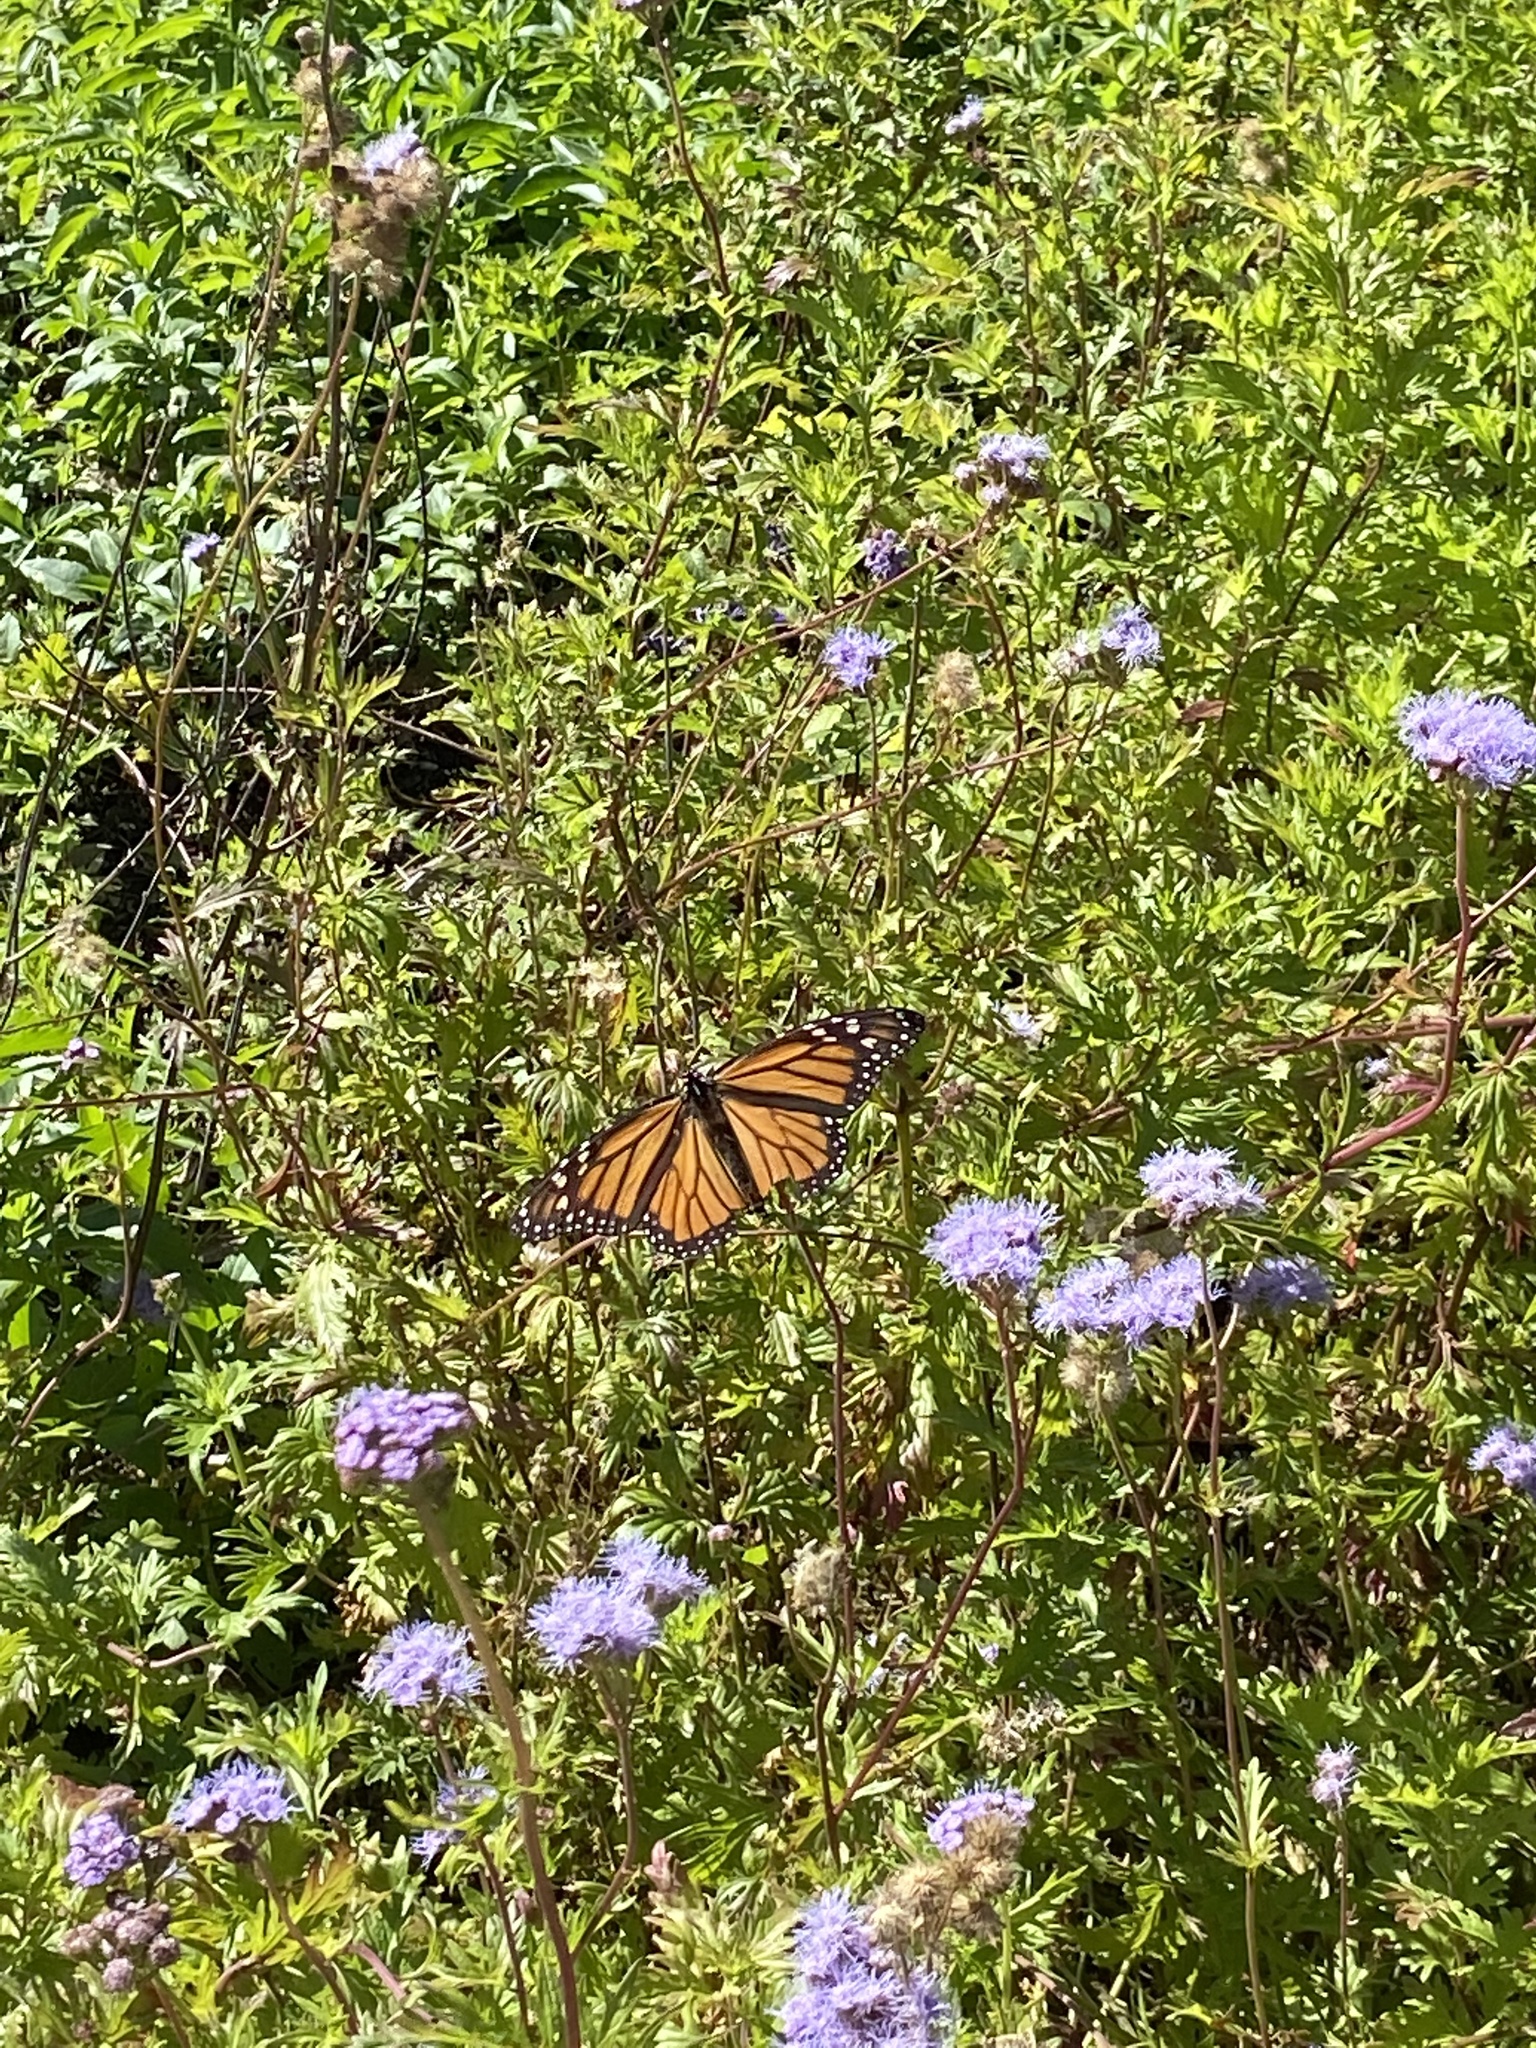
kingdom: Animalia
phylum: Arthropoda
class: Insecta
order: Lepidoptera
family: Nymphalidae
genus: Danaus
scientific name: Danaus plexippus
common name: Monarch
